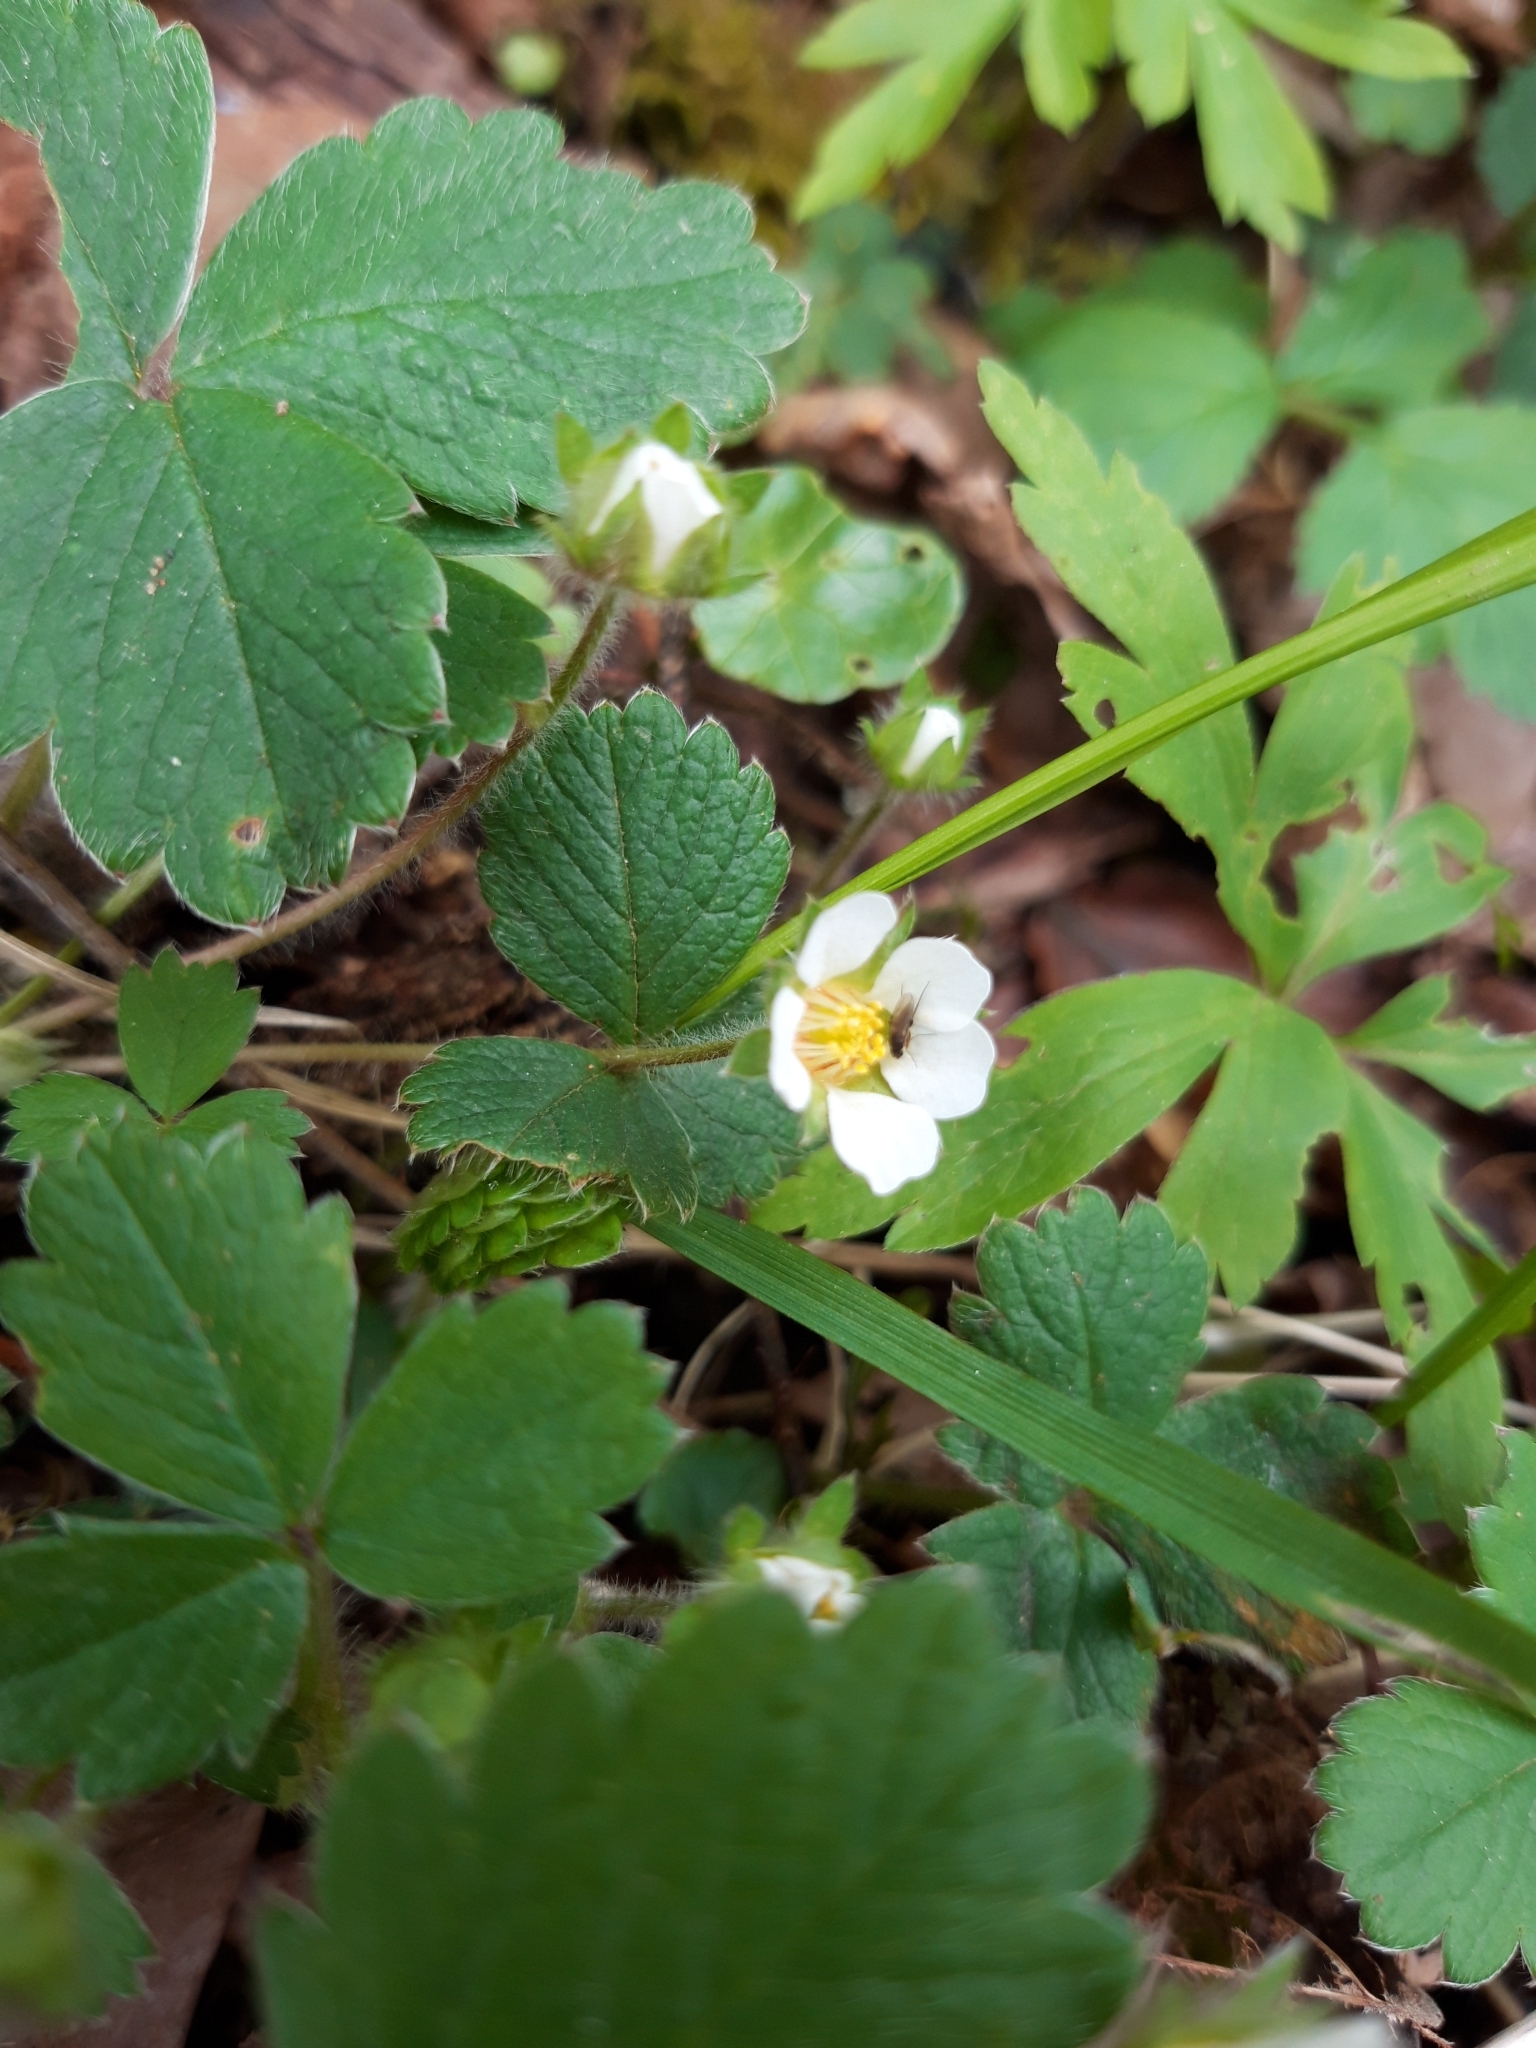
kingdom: Plantae
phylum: Tracheophyta
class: Magnoliopsida
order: Rosales
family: Rosaceae
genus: Potentilla
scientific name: Potentilla sterilis
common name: Barren strawberry
